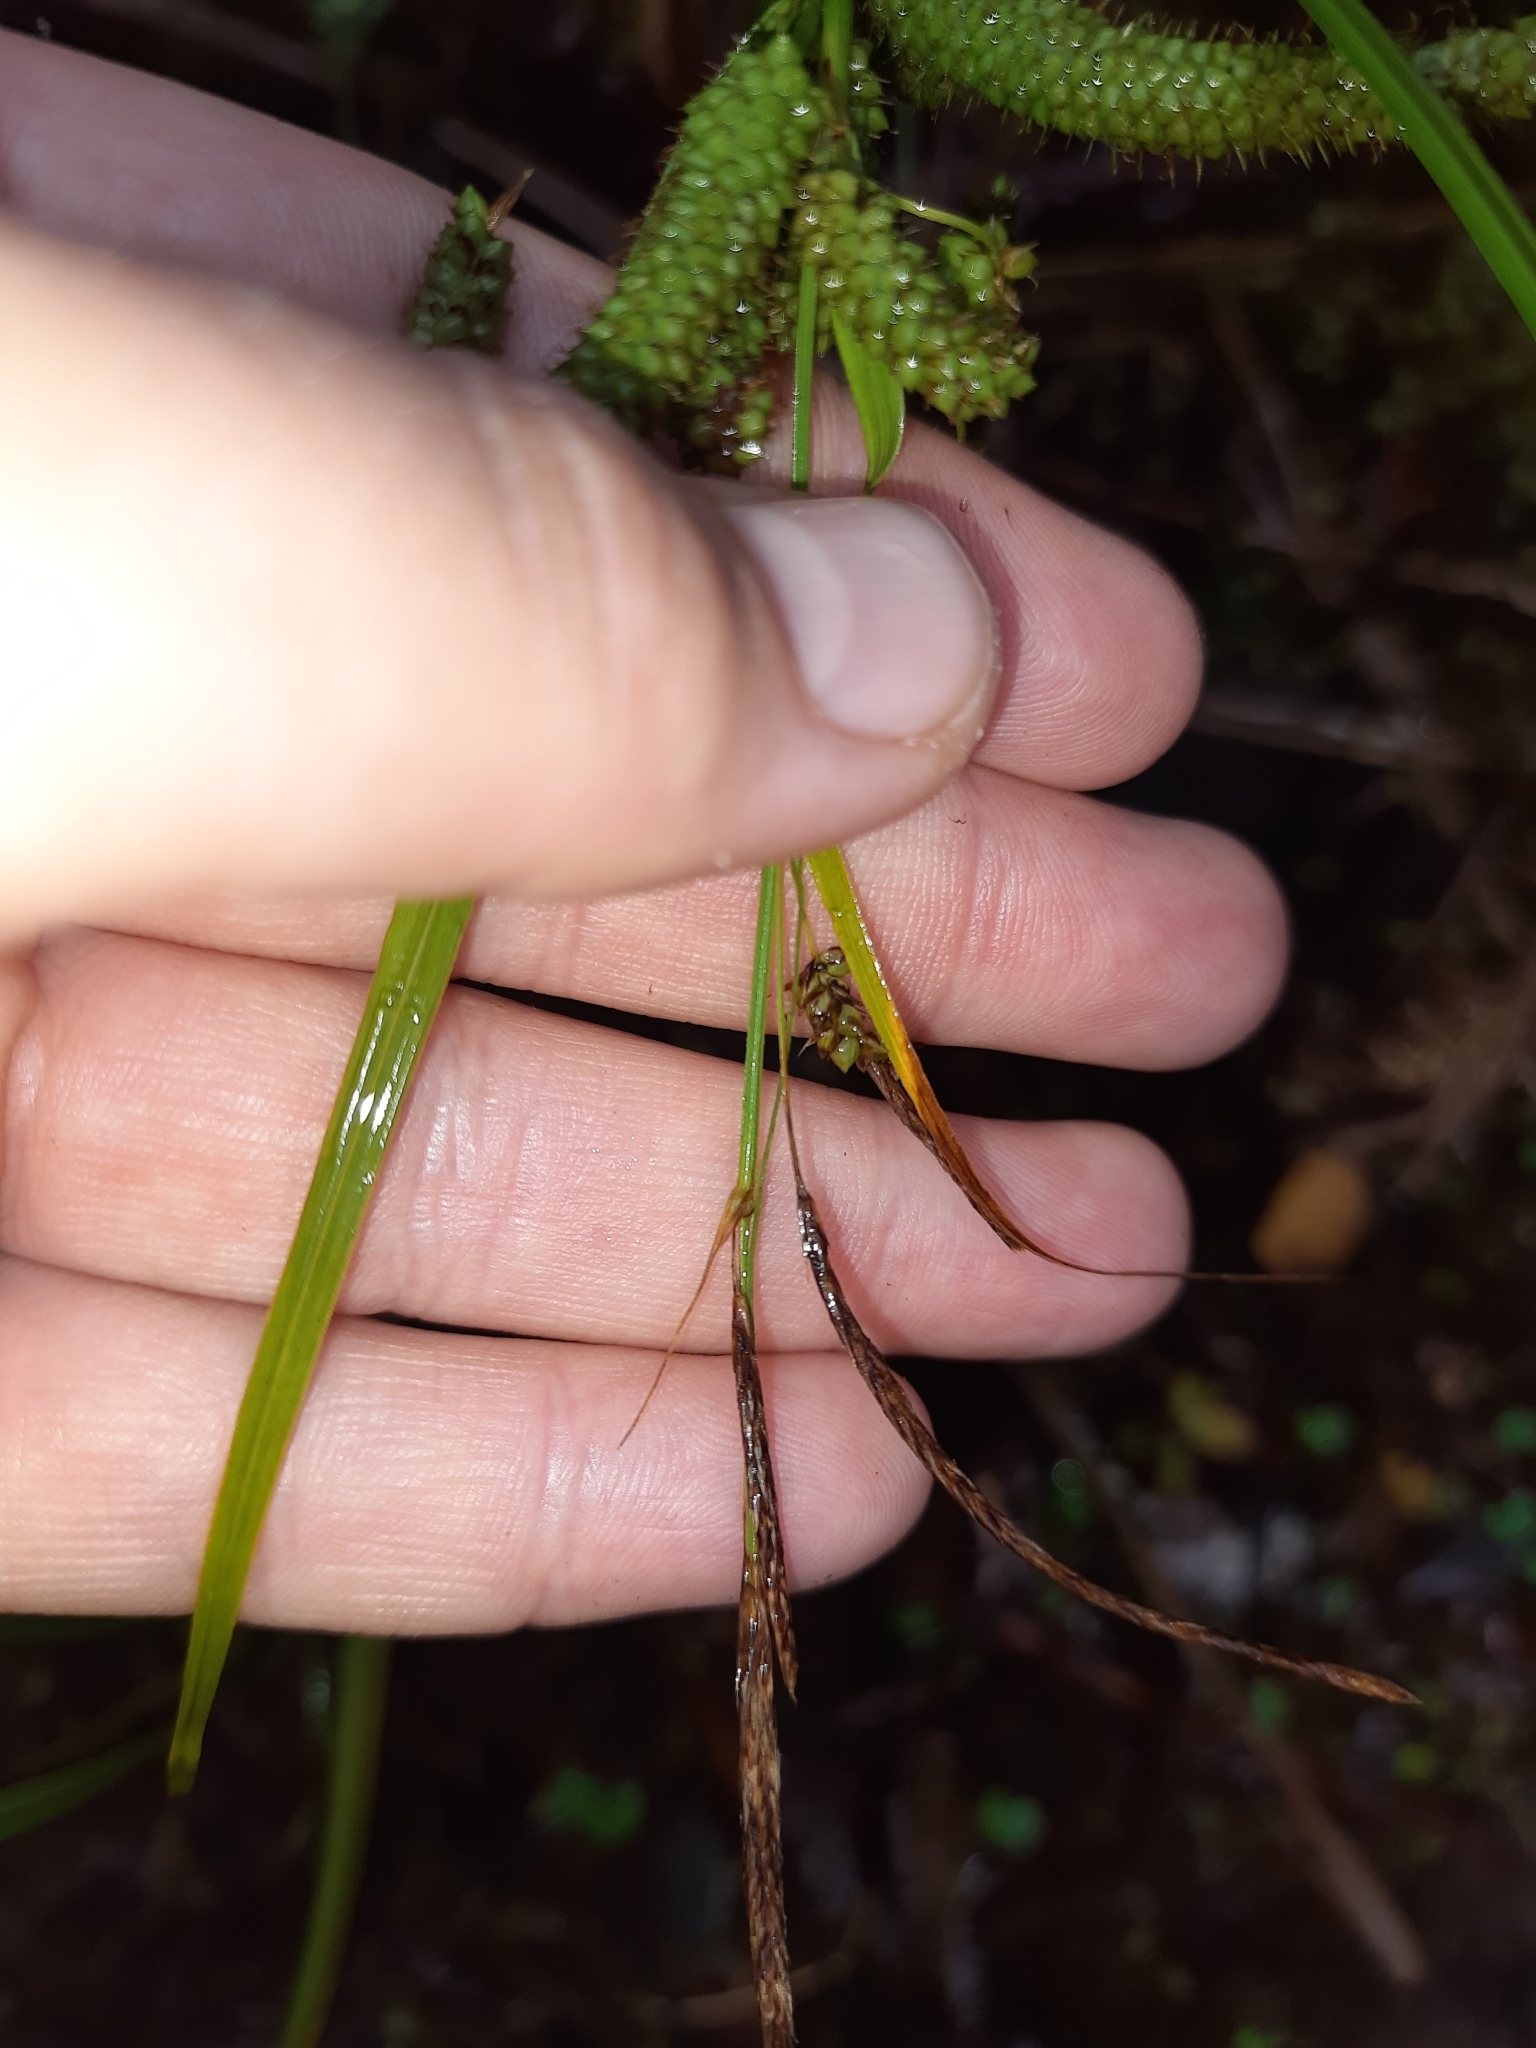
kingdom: Plantae
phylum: Tracheophyta
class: Liliopsida
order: Poales
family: Cyperaceae
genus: Carex
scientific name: Carex geminata
